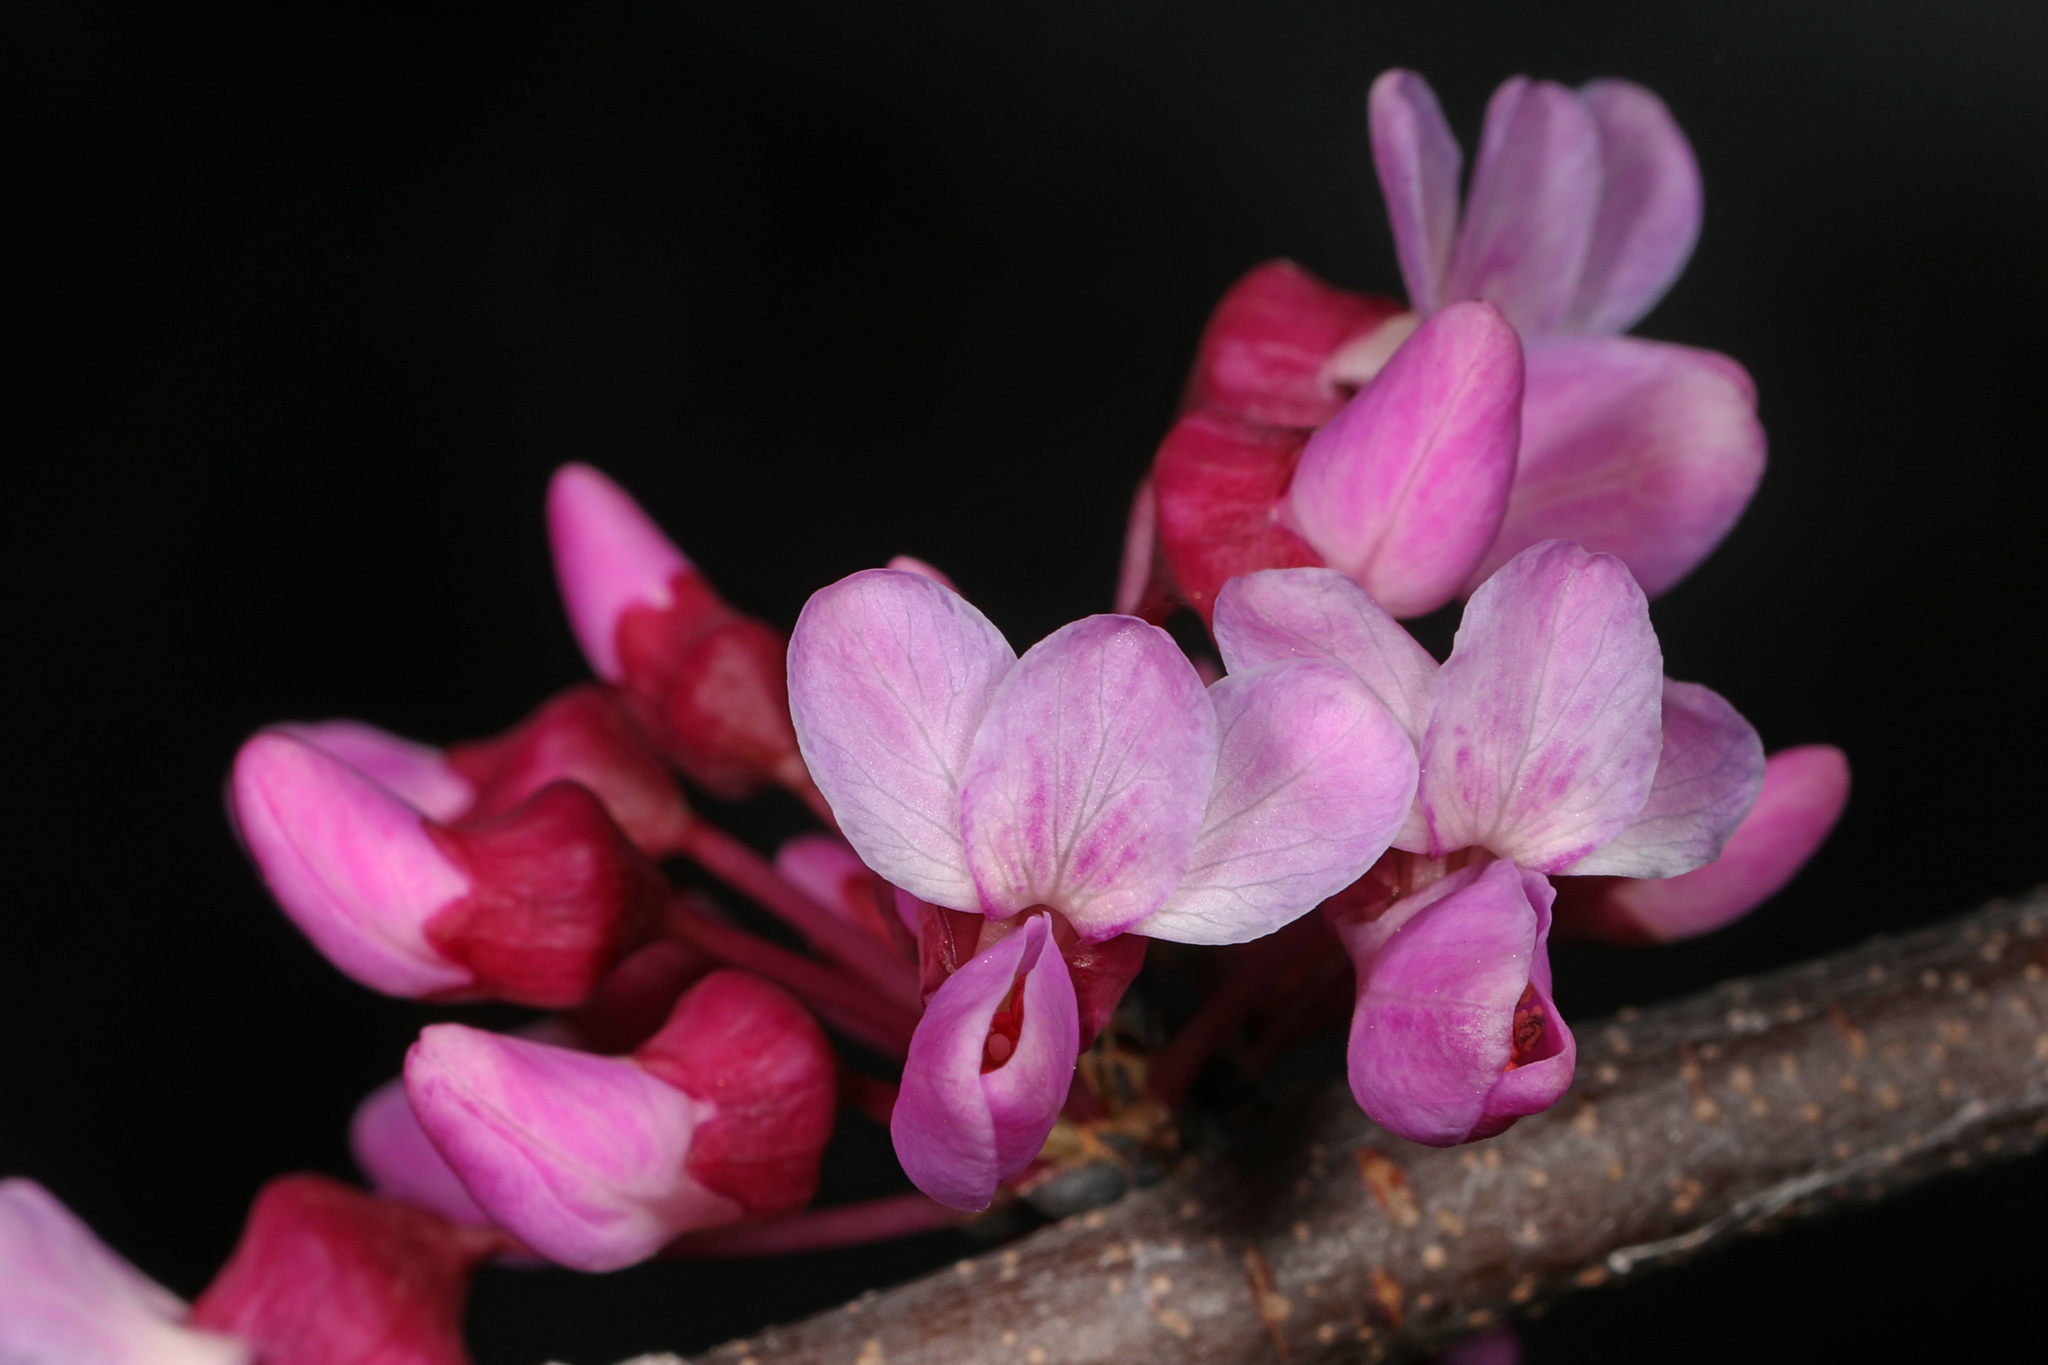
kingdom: Plantae
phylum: Tracheophyta
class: Magnoliopsida
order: Fabales
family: Fabaceae
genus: Cercis
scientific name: Cercis canadensis
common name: Eastern redbud
